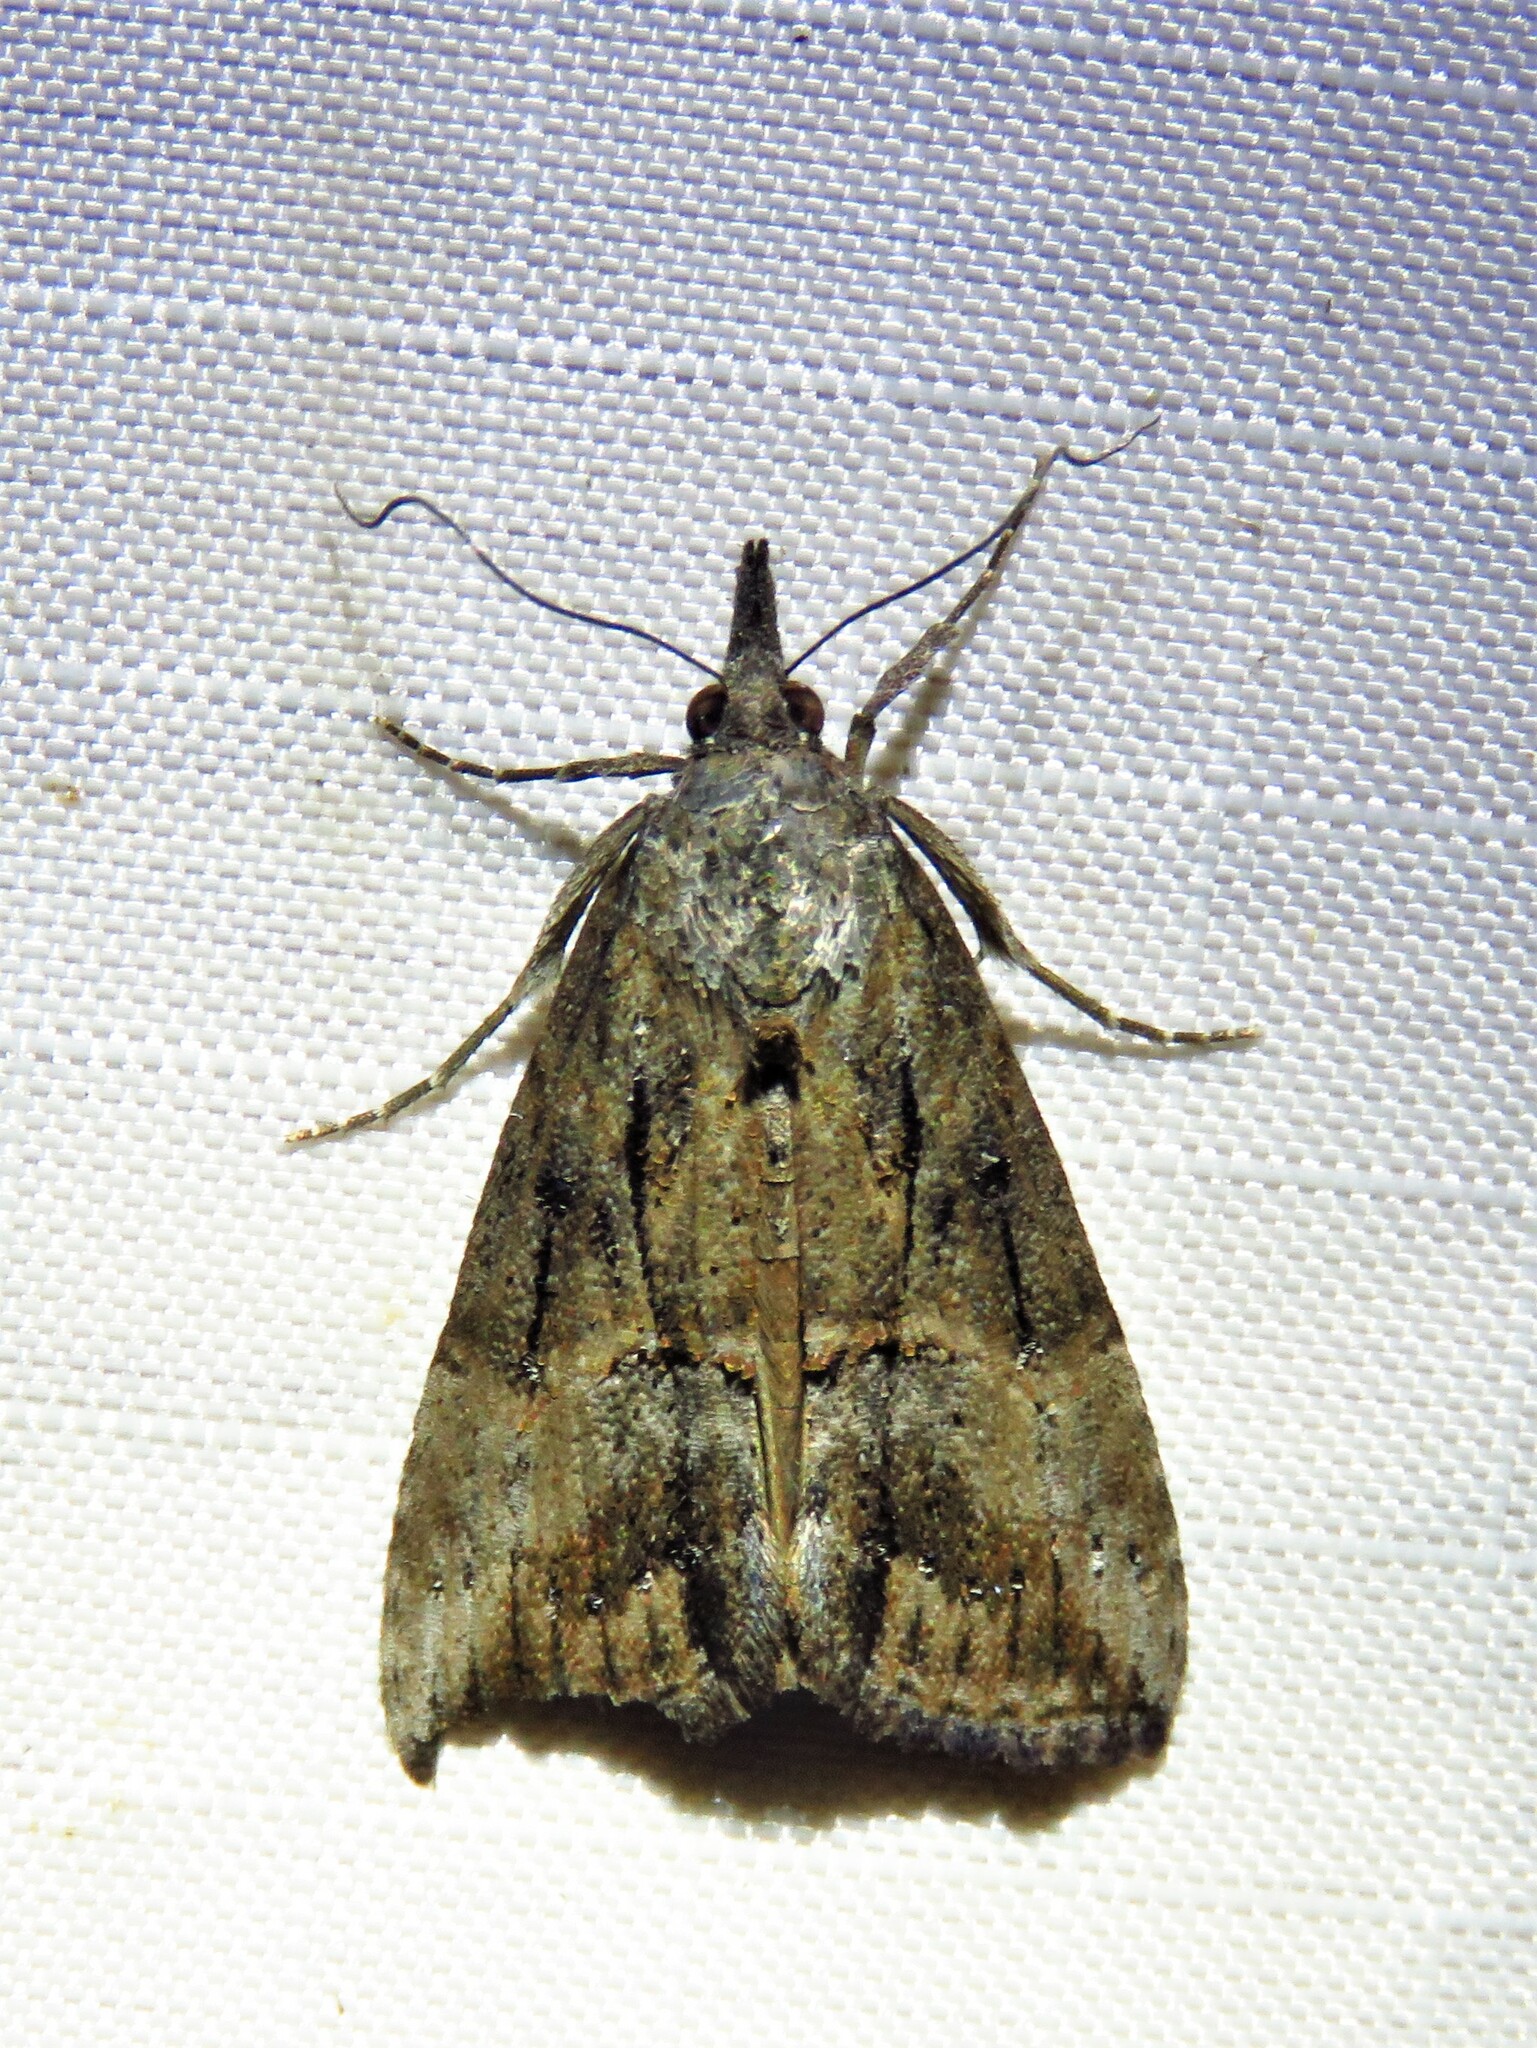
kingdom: Animalia
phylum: Arthropoda
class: Insecta
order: Lepidoptera
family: Erebidae
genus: Hypena
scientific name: Hypena scabra
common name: Green cloverworm
